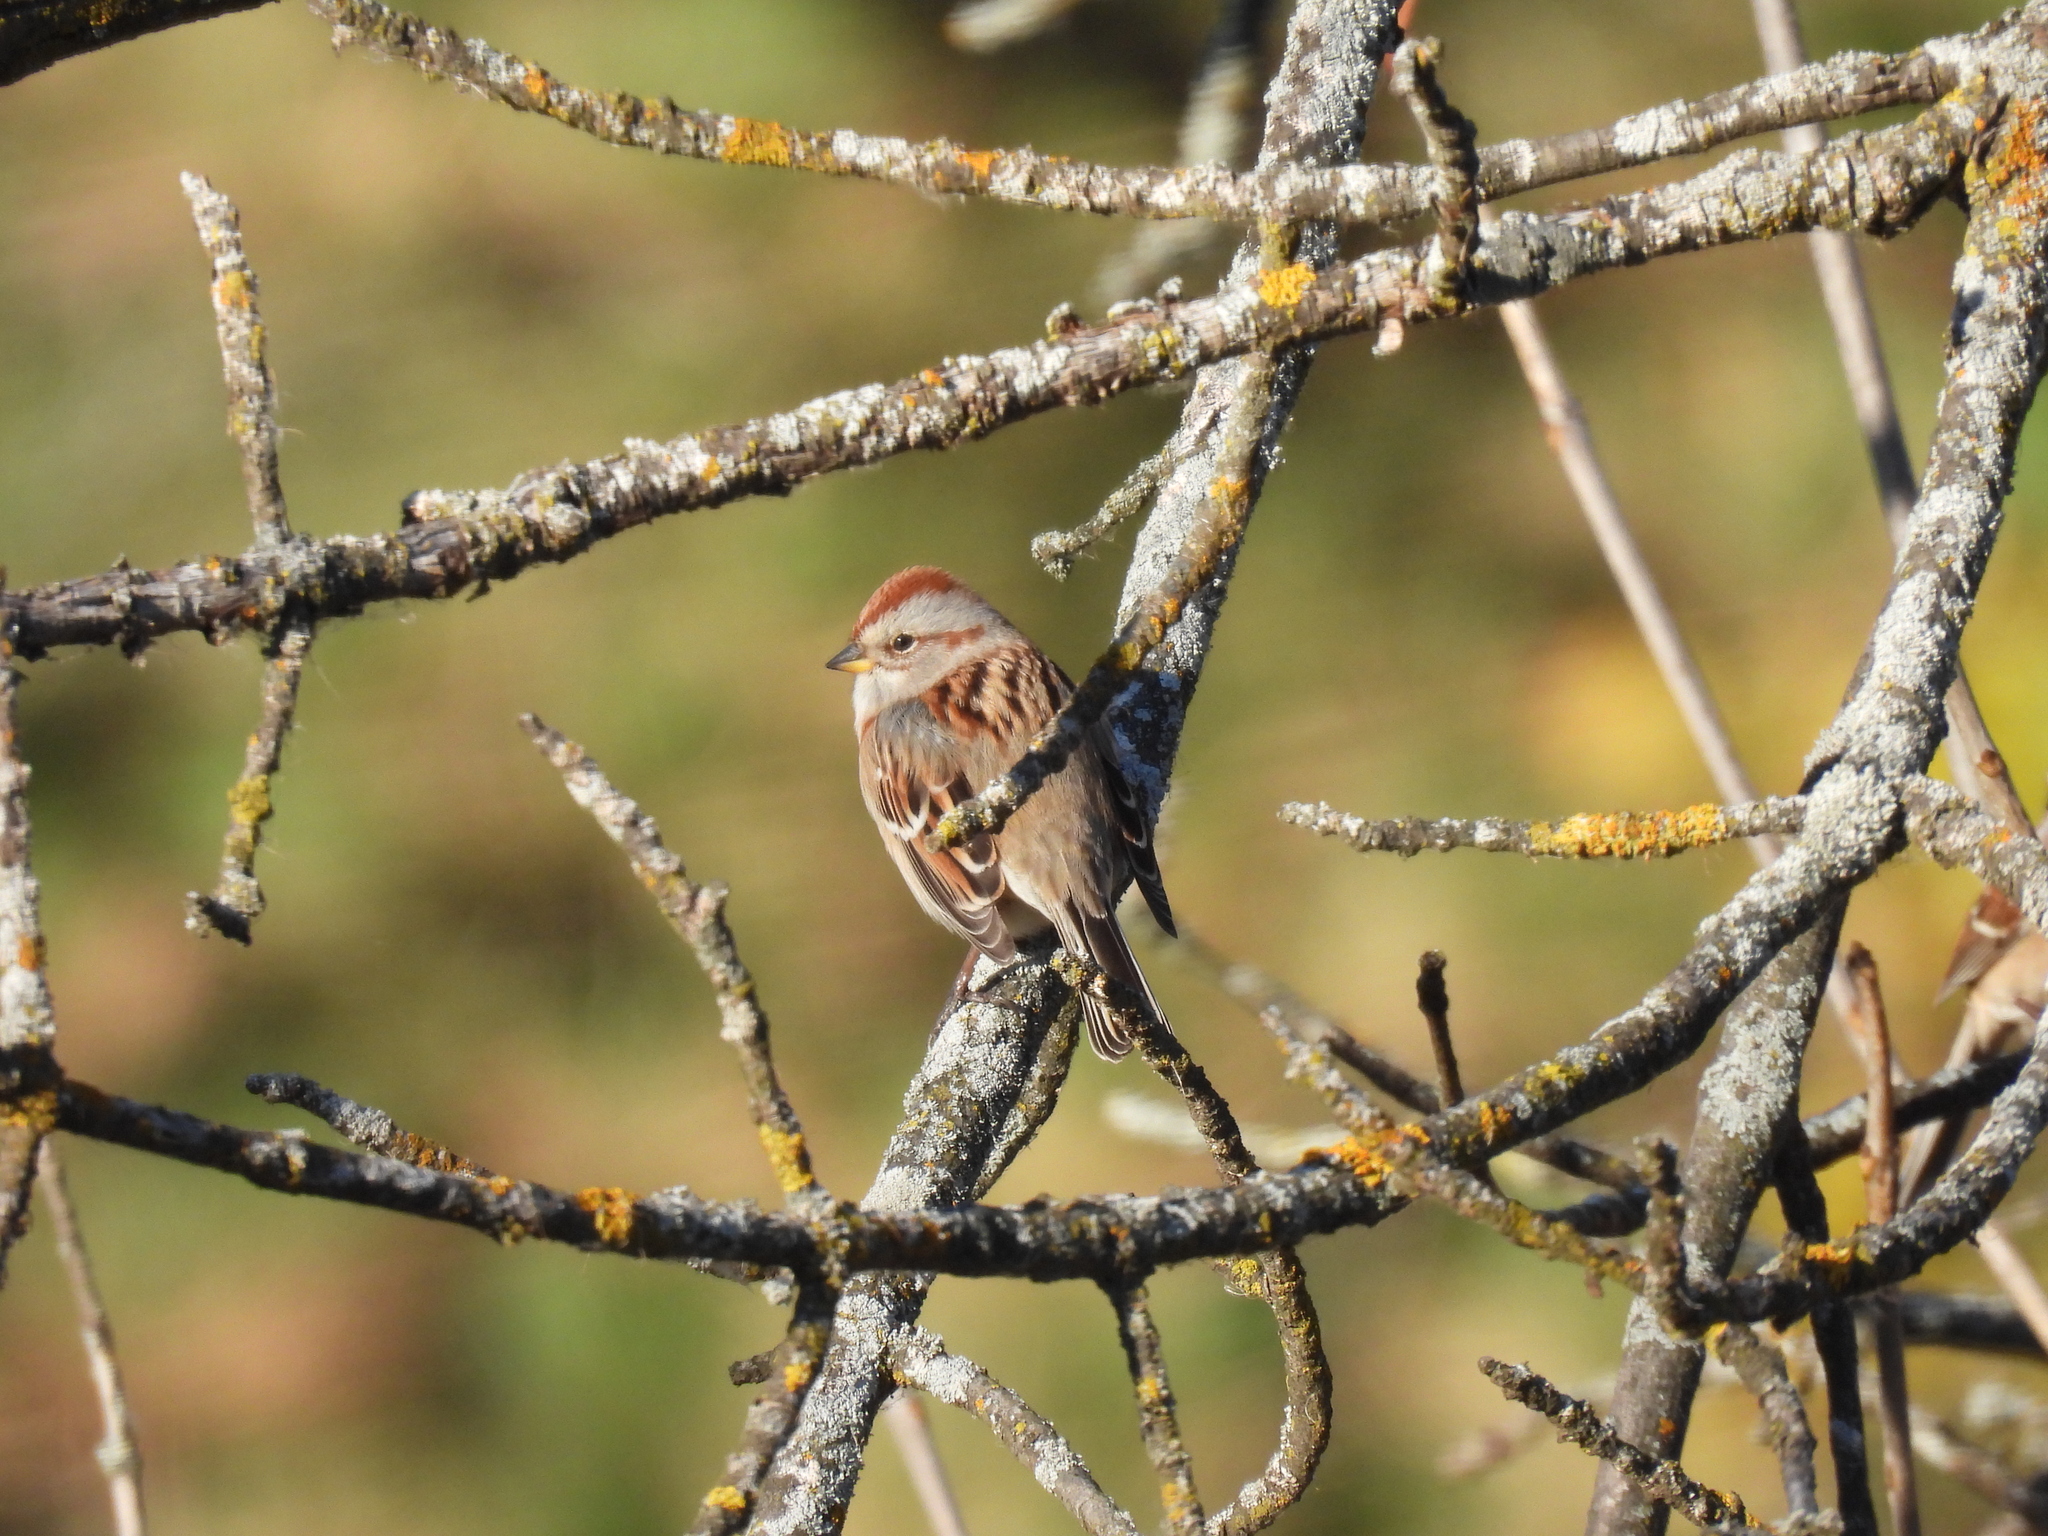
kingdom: Animalia
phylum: Chordata
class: Aves
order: Passeriformes
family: Passerellidae
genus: Spizelloides
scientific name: Spizelloides arborea
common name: American tree sparrow
